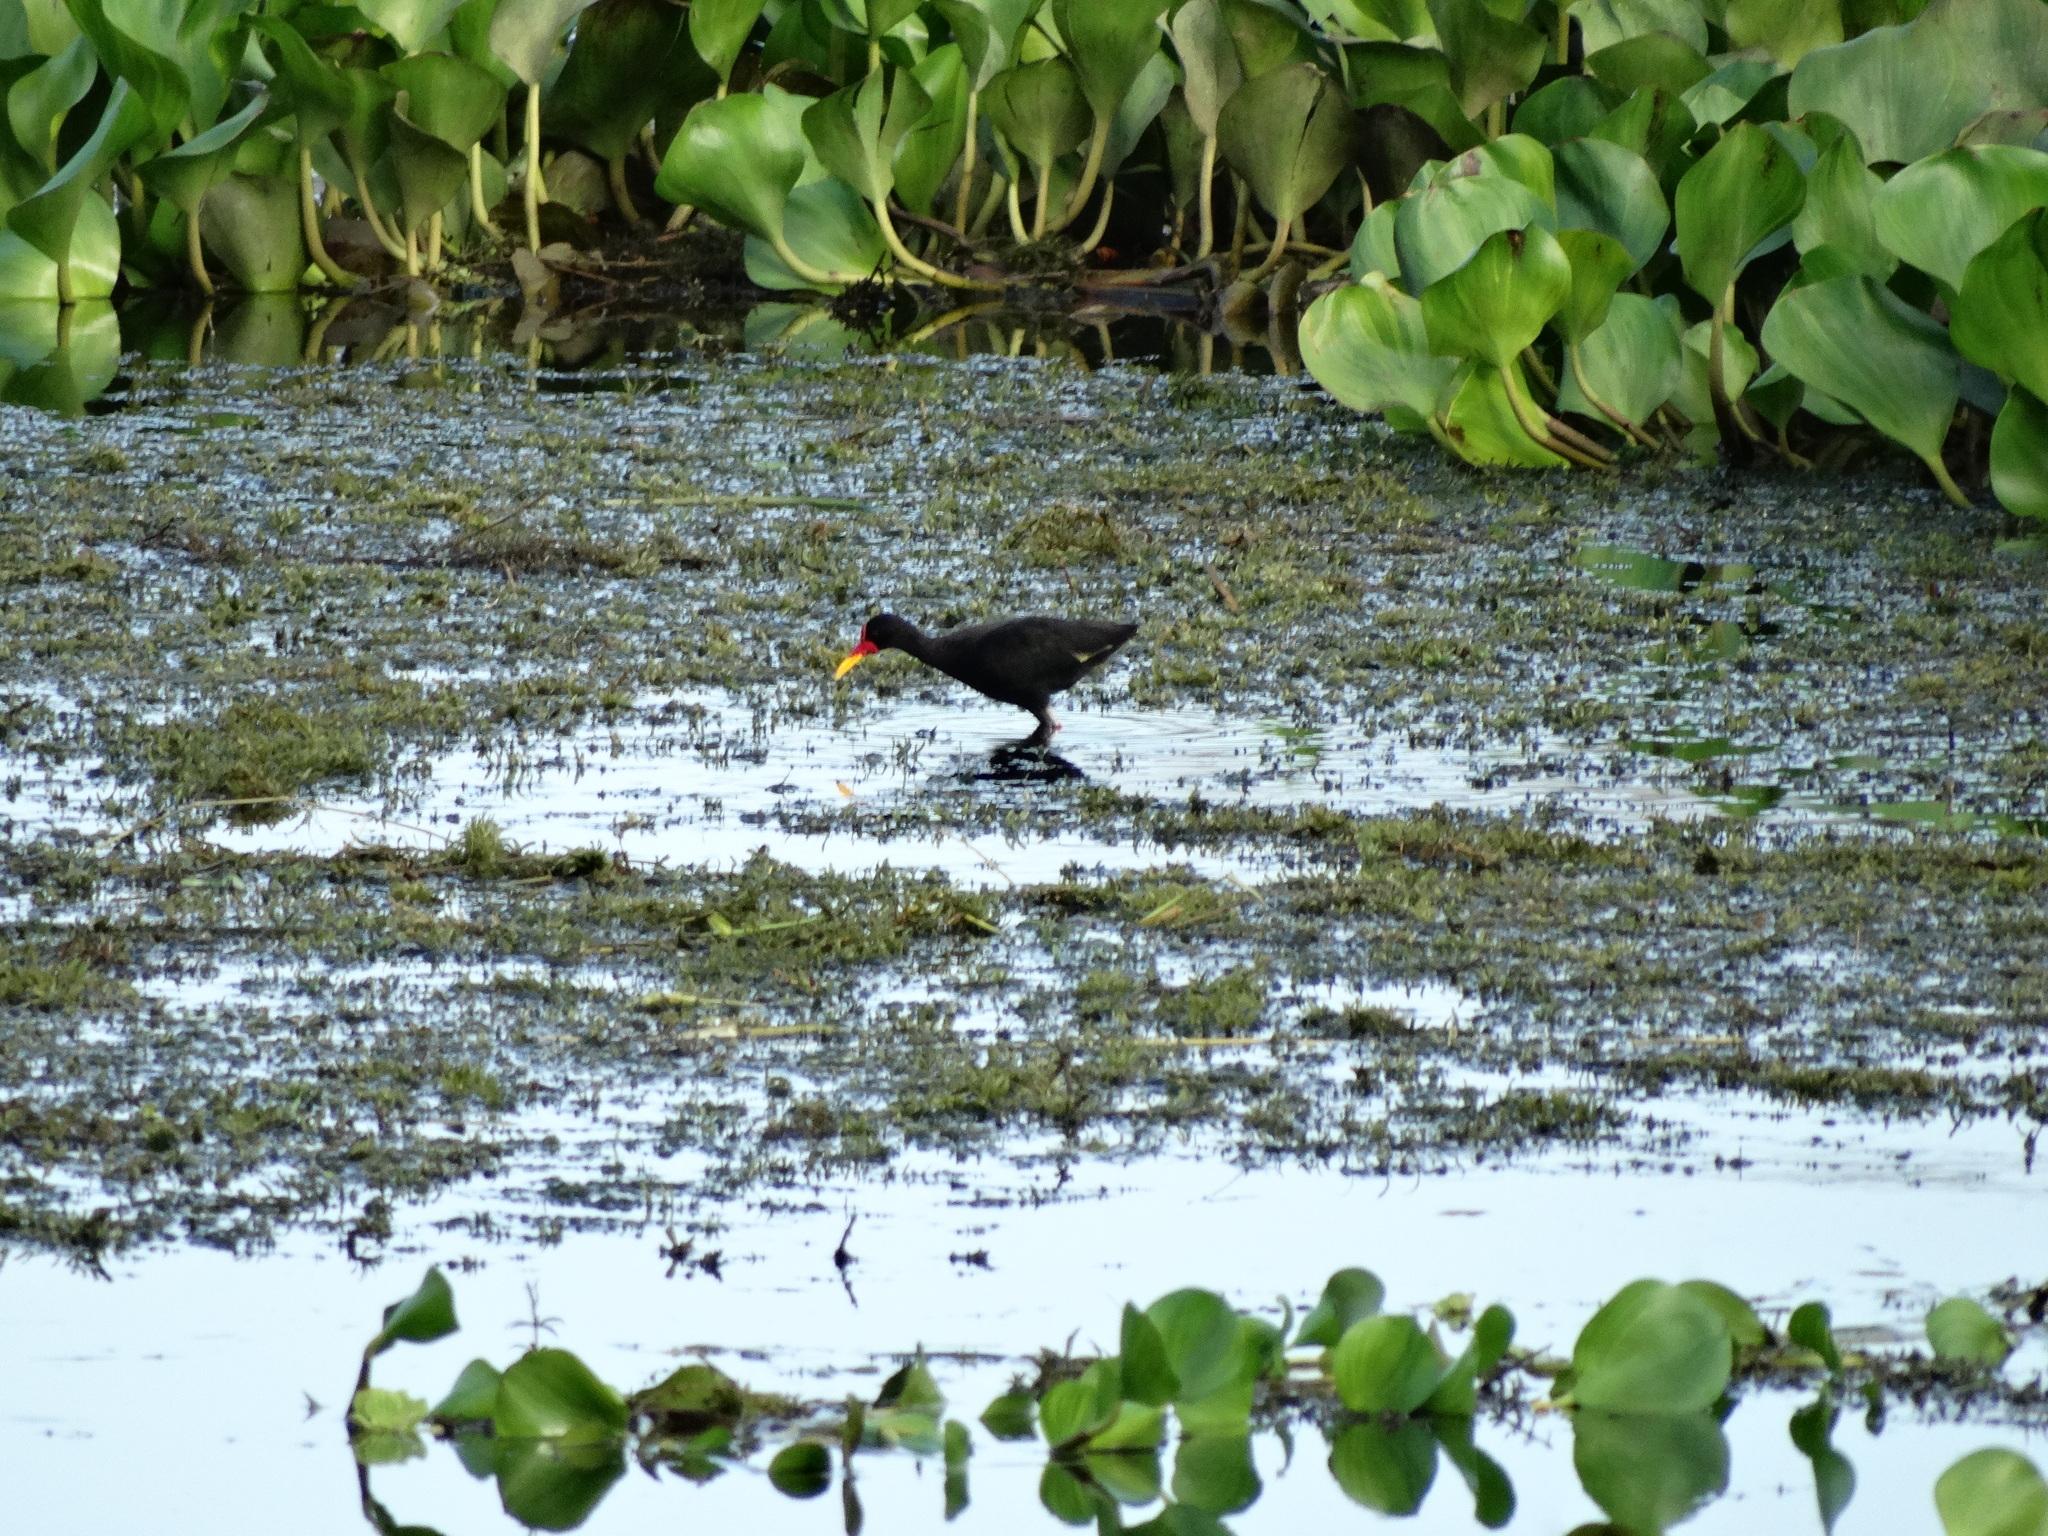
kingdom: Animalia
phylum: Chordata
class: Aves
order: Charadriiformes
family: Jacanidae
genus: Jacana
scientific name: Jacana jacana
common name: Wattled jacana
